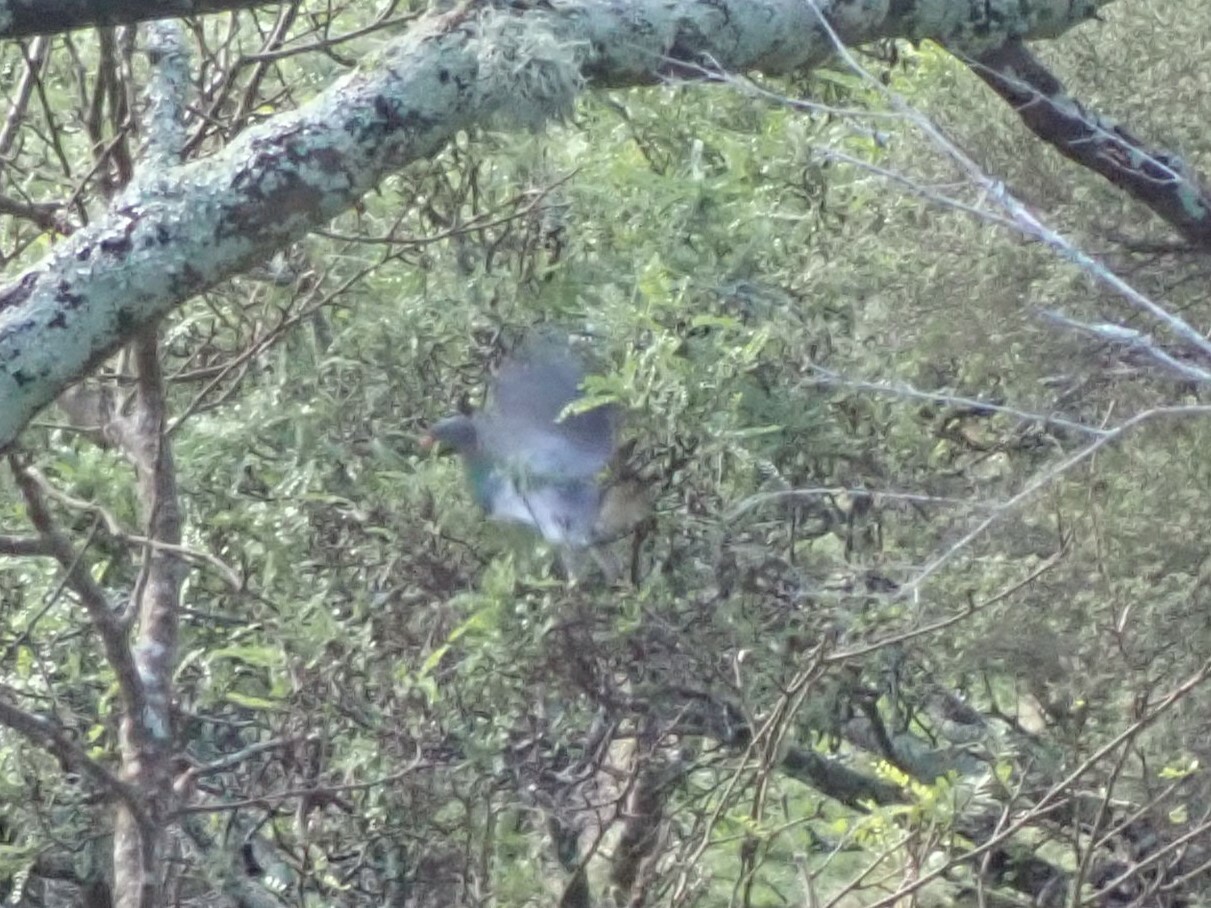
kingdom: Animalia
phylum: Chordata
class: Aves
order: Columbiformes
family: Columbidae
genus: Hemiphaga
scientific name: Hemiphaga novaeseelandiae
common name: New zealand pigeon
